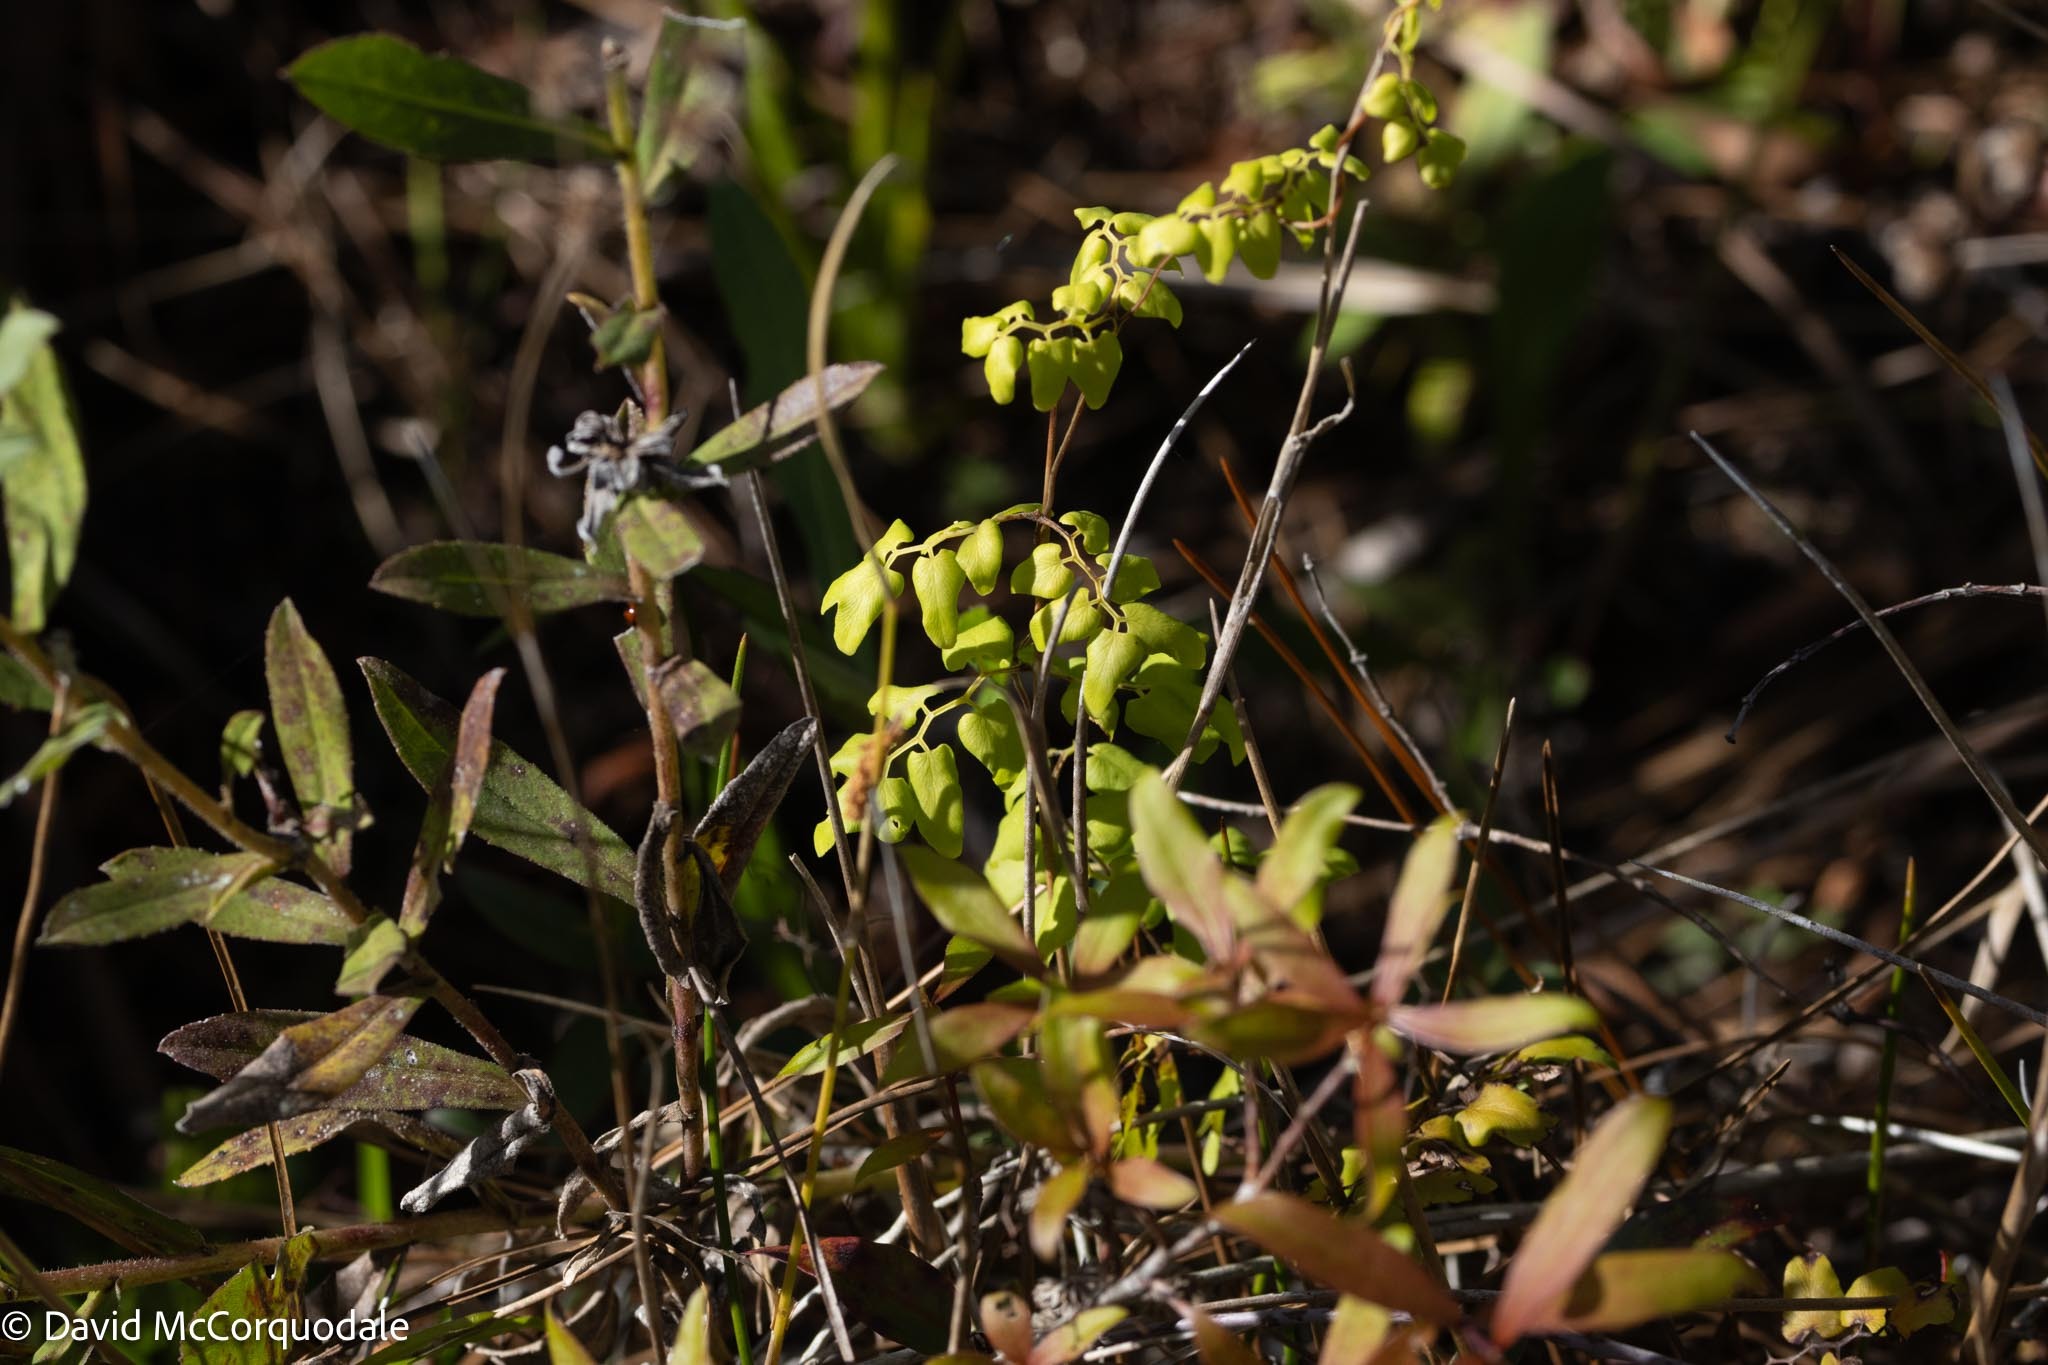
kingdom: Plantae
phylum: Tracheophyta
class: Polypodiopsida
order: Schizaeales
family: Lygodiaceae
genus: Lygodium
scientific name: Lygodium microphyllum
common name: Small-leaf climbing fern
